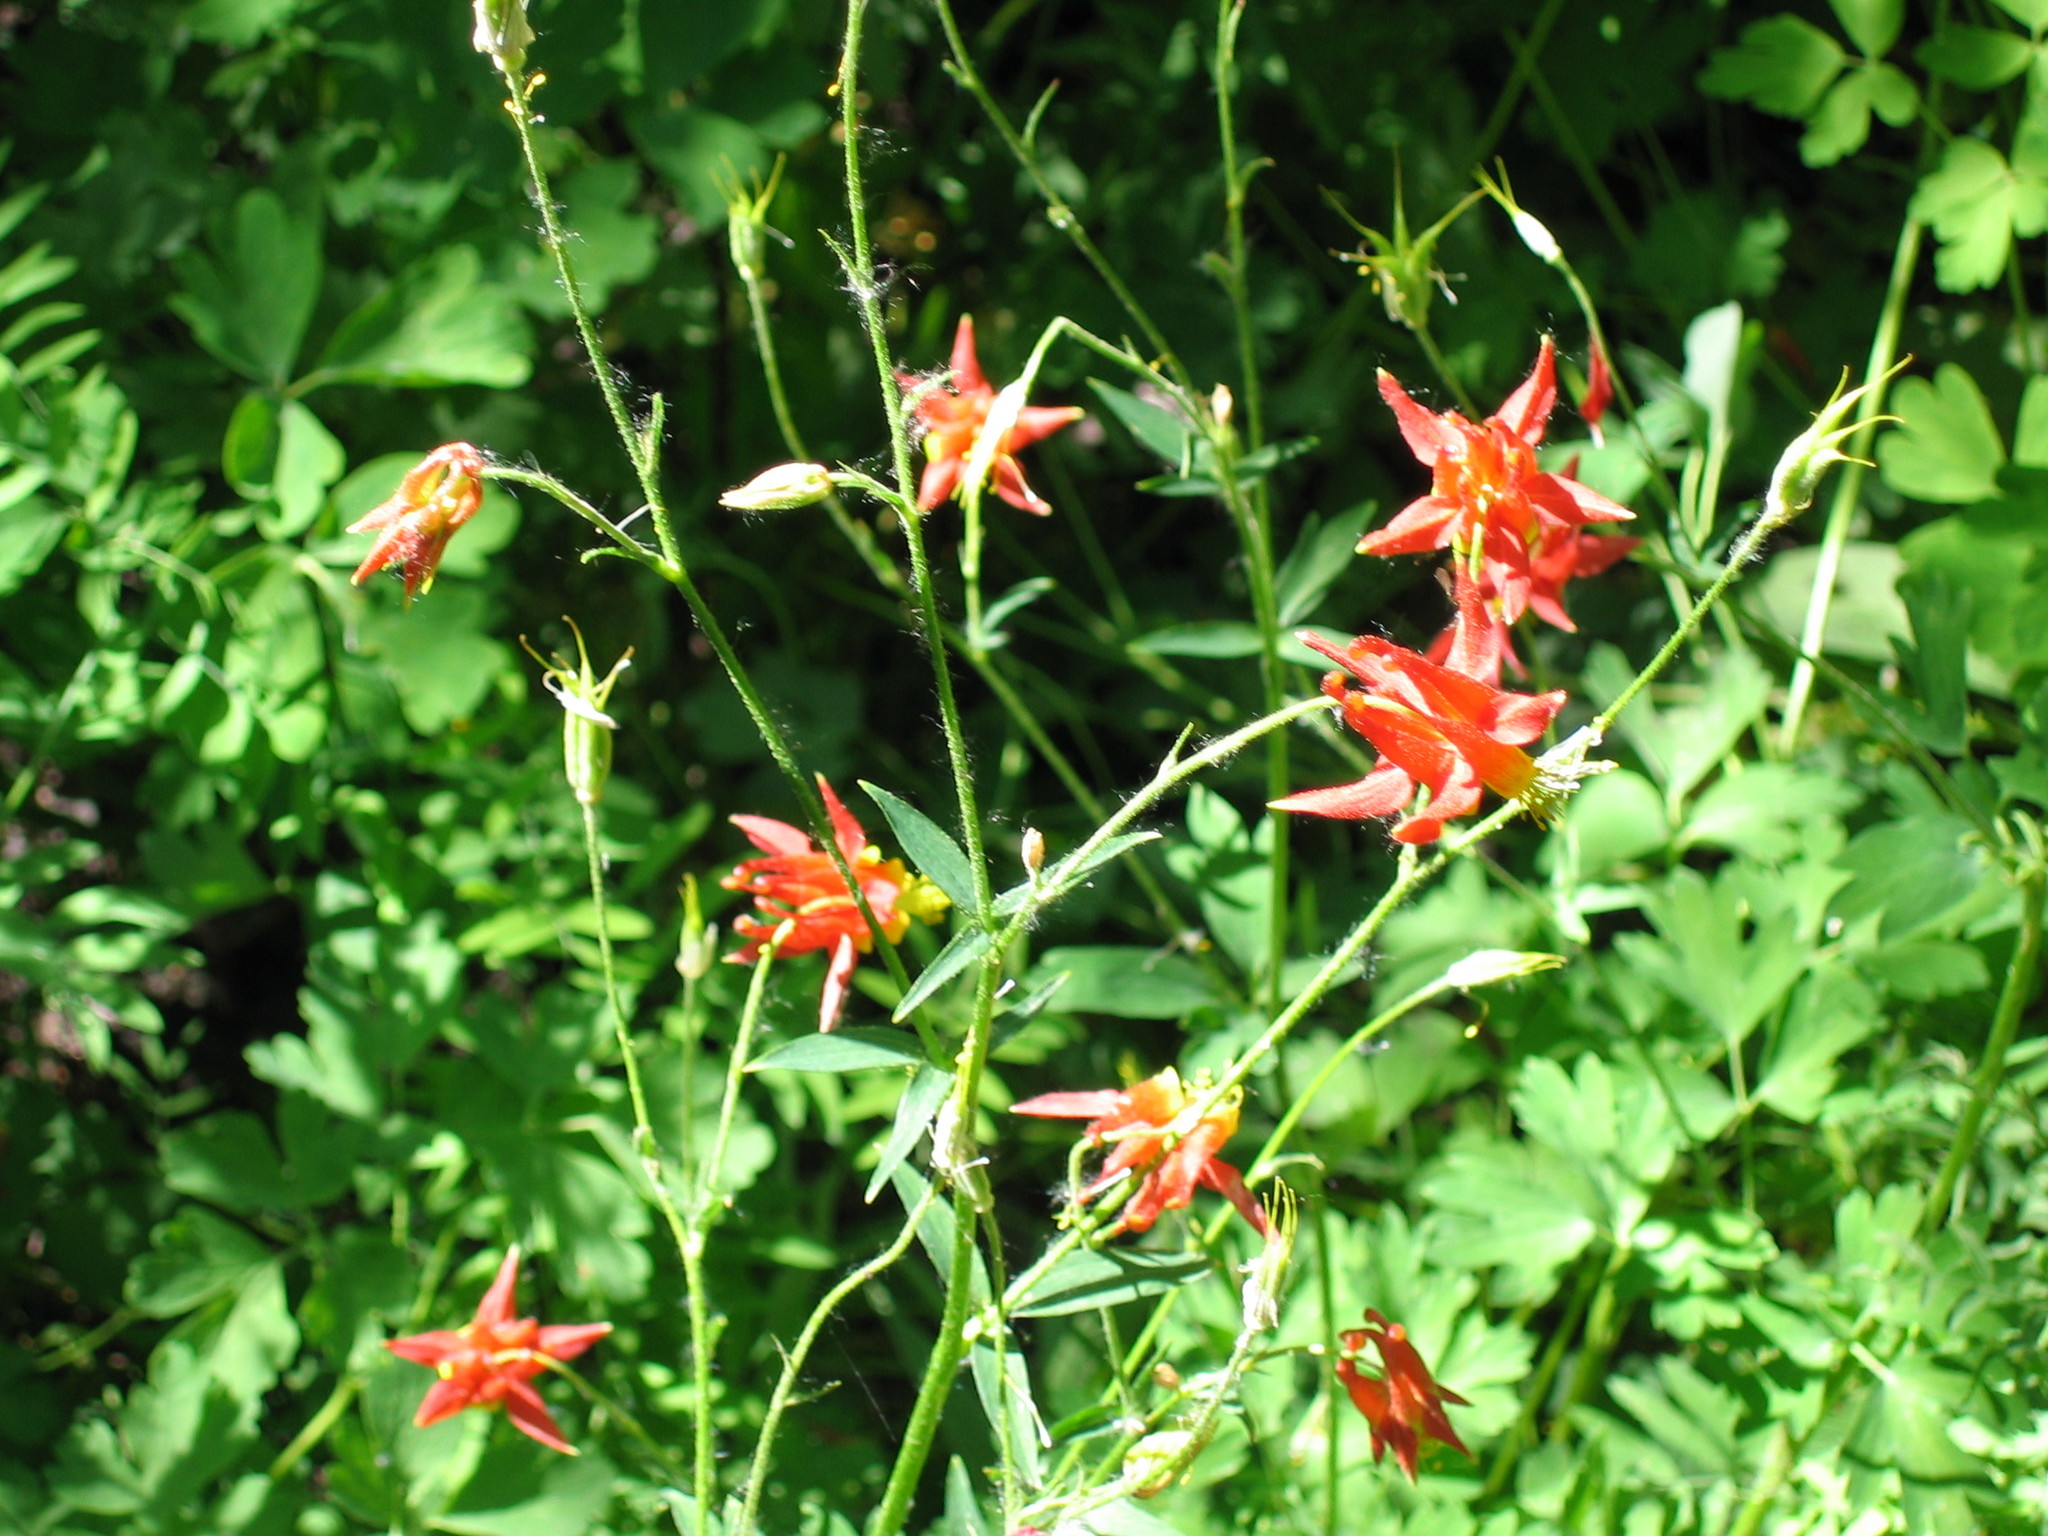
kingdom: Plantae
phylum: Tracheophyta
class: Magnoliopsida
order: Ranunculales
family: Ranunculaceae
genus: Aquilegia
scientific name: Aquilegia formosa
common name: Sitka columbine
